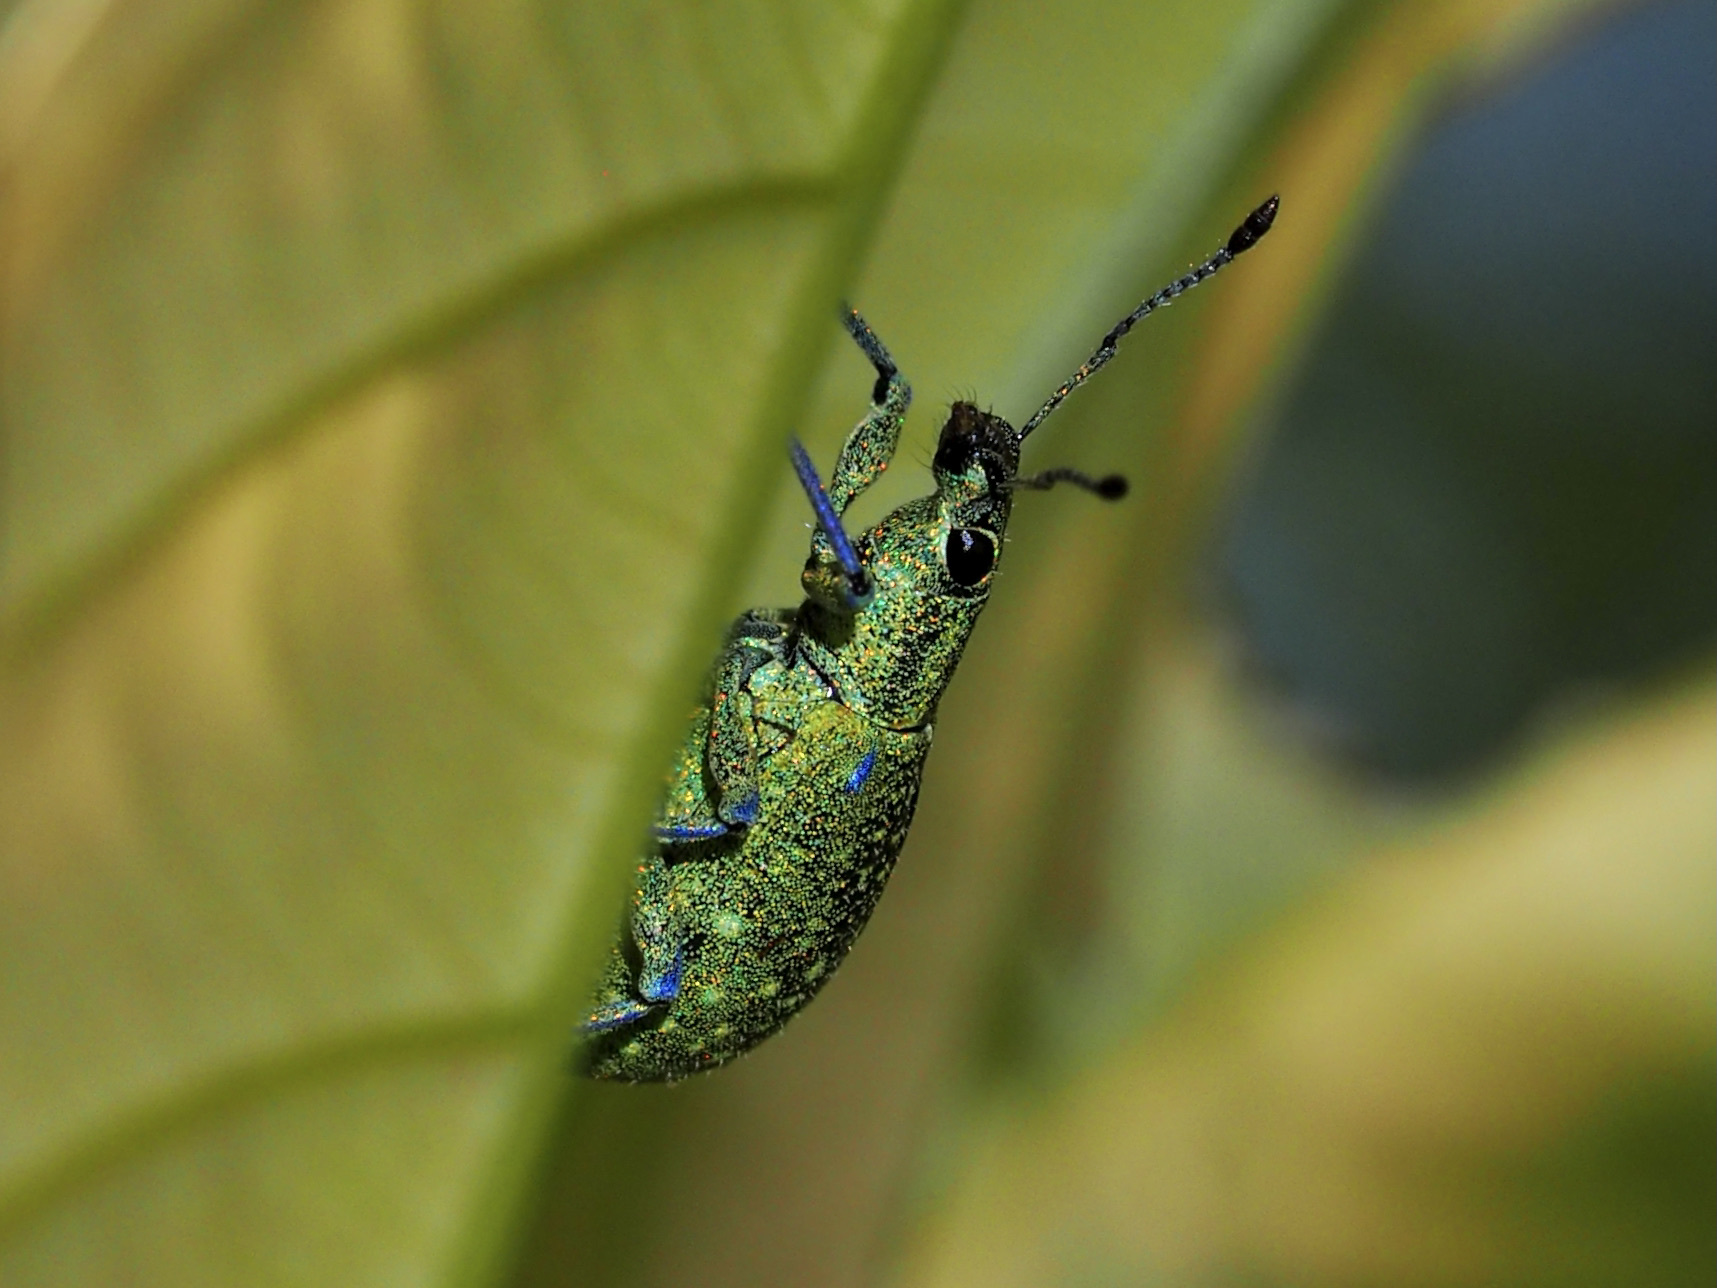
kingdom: Animalia
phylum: Arthropoda
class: Insecta
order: Coleoptera
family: Curculionidae
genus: Exophthalmus
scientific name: Exophthalmus jekelianus
